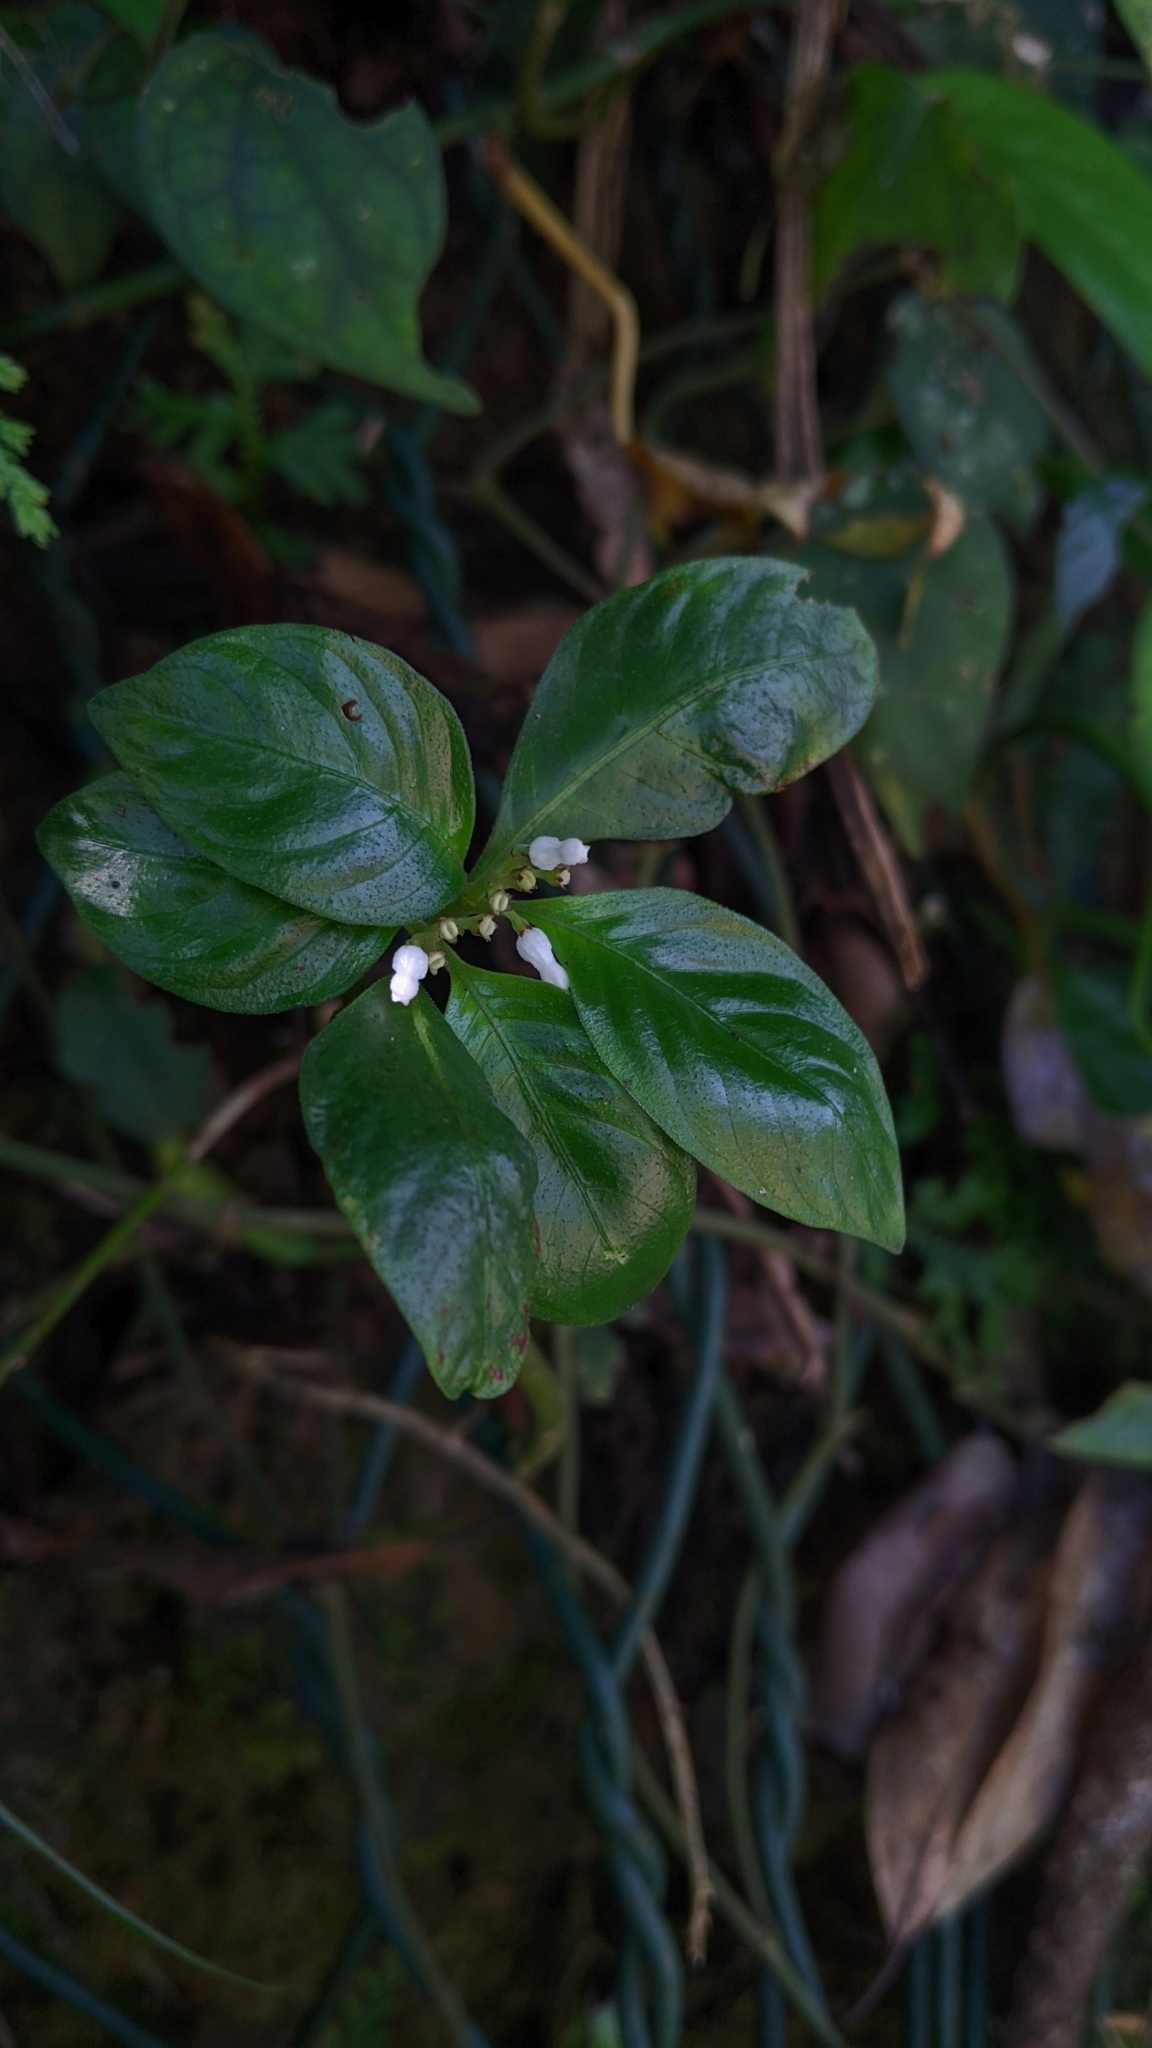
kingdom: Plantae
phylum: Tracheophyta
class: Magnoliopsida
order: Gentianales
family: Rubiaceae
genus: Ophiorrhiza
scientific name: Ophiorrhiza pumila
